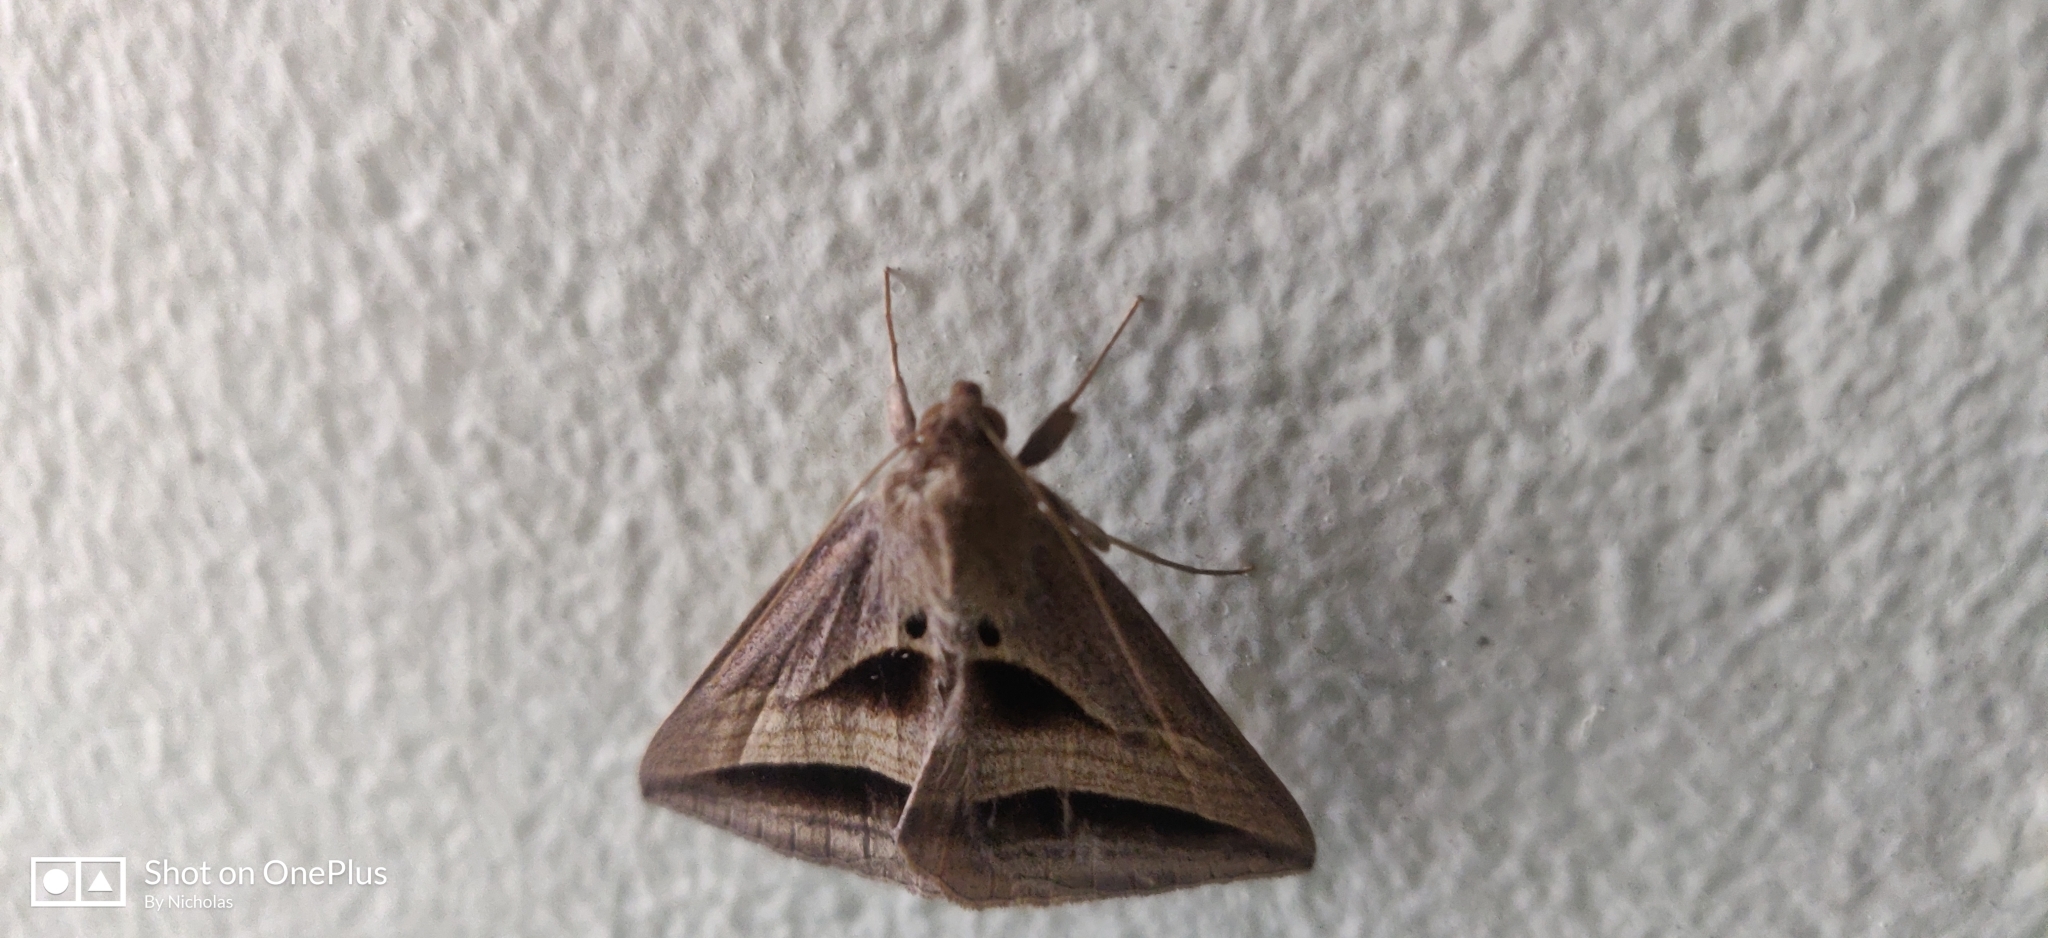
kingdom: Animalia
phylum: Arthropoda
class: Insecta
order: Lepidoptera
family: Erebidae
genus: Perasia
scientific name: Perasia garnoti
